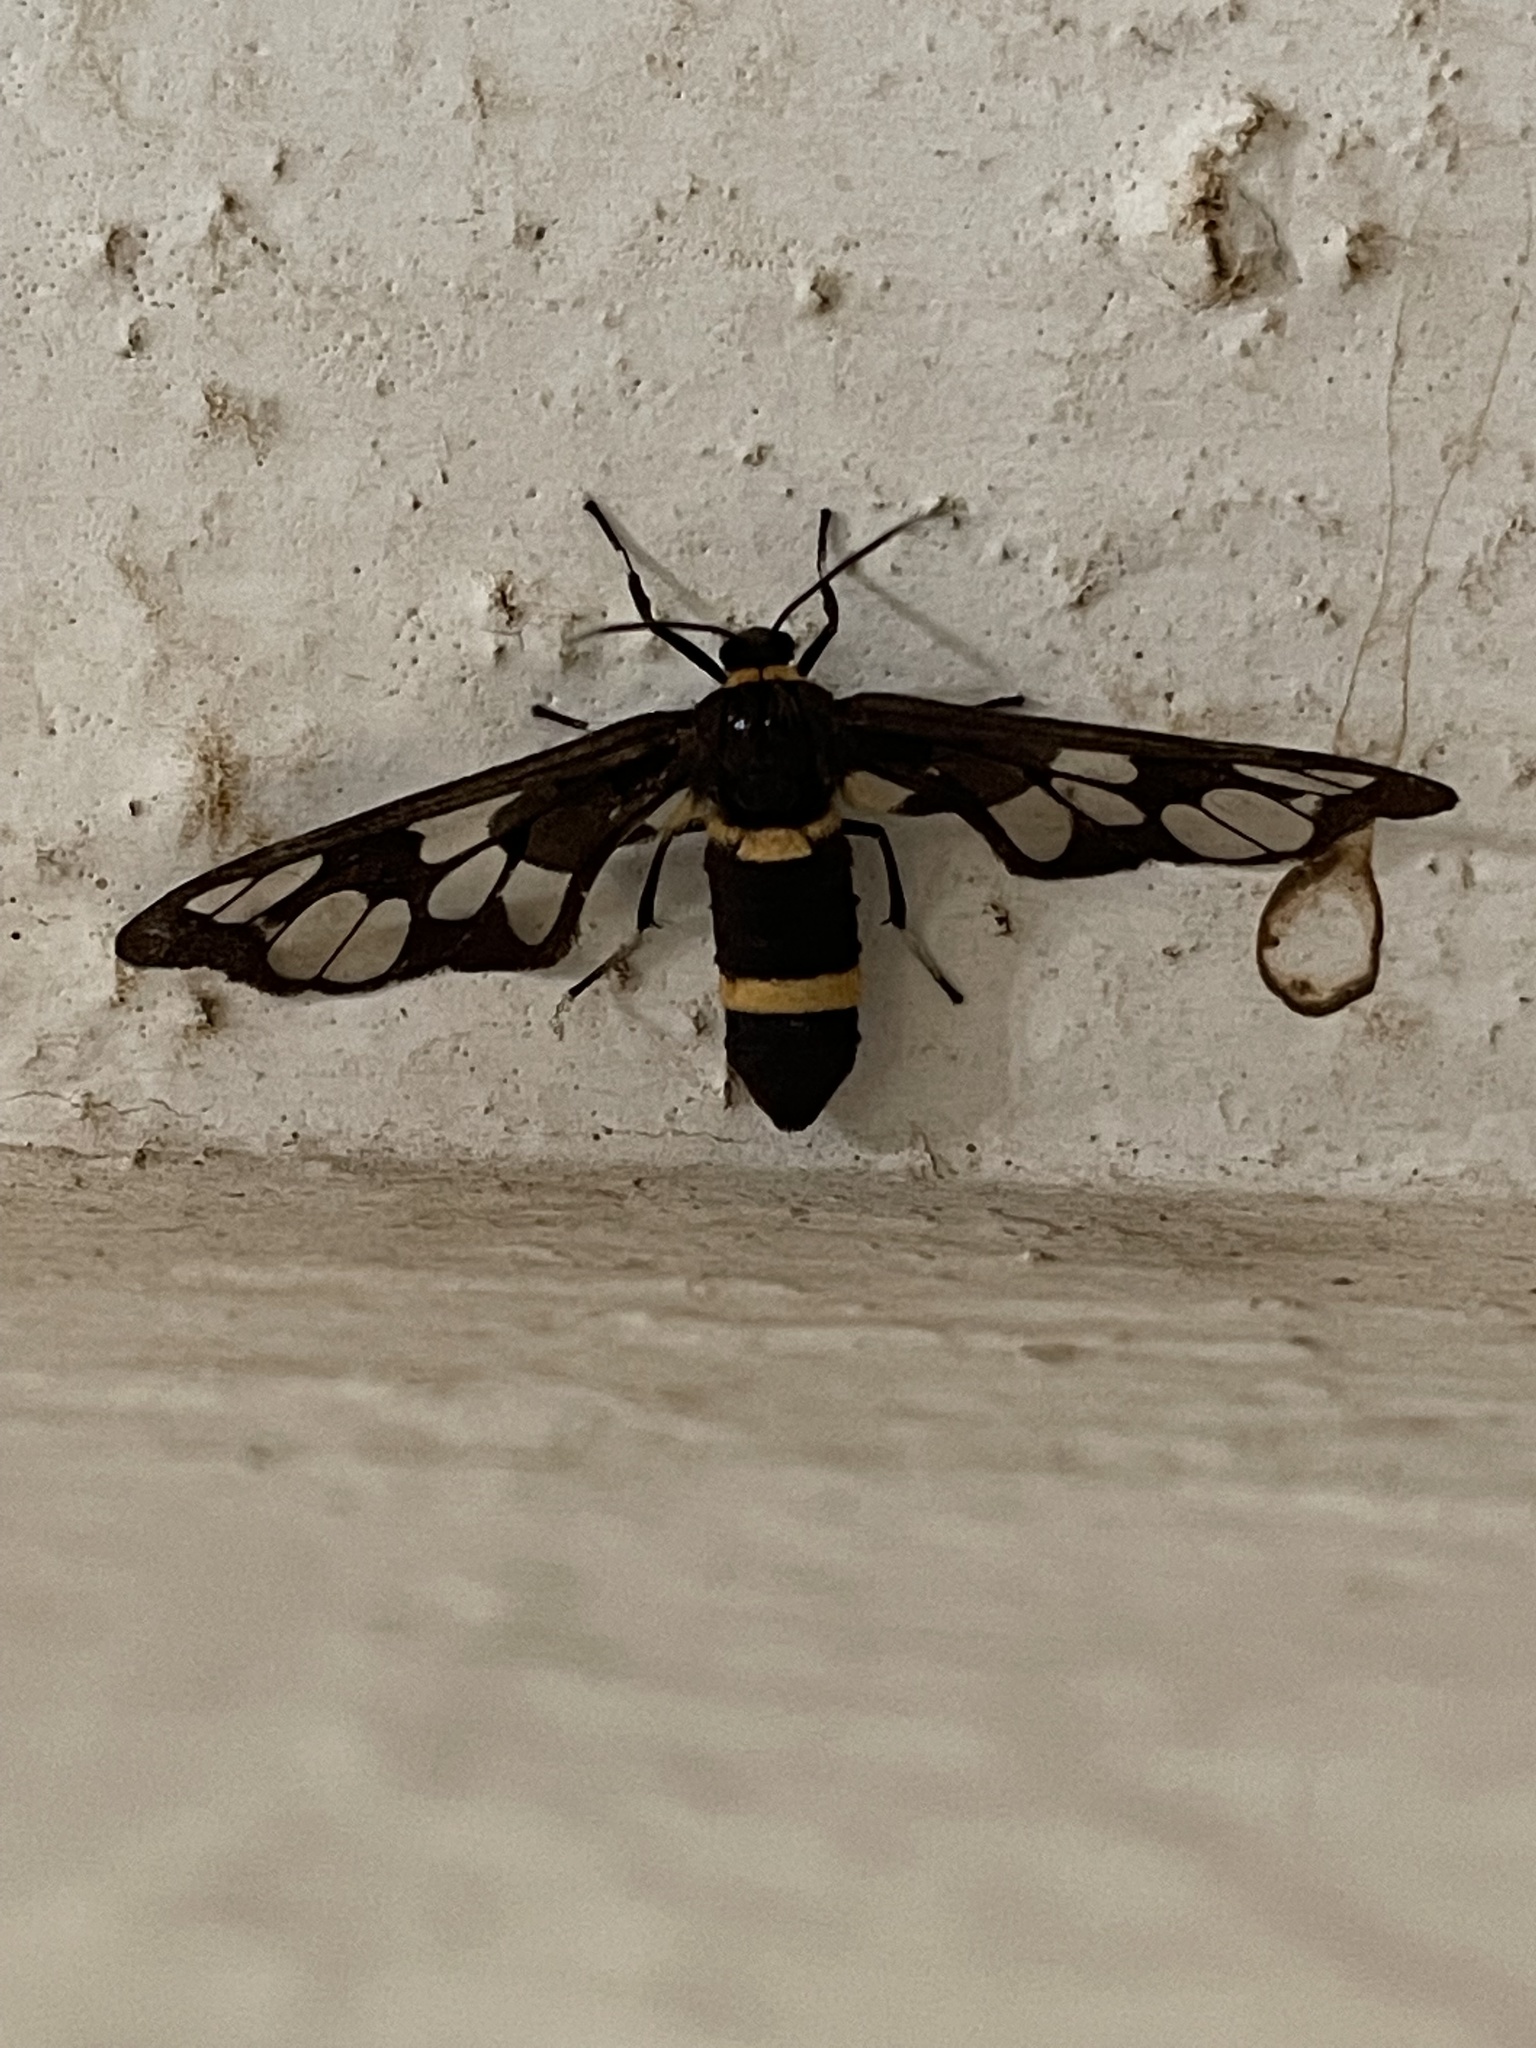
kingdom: Animalia
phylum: Arthropoda
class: Insecta
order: Lepidoptera
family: Erebidae
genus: Syntomoides
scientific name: Syntomoides imaon
